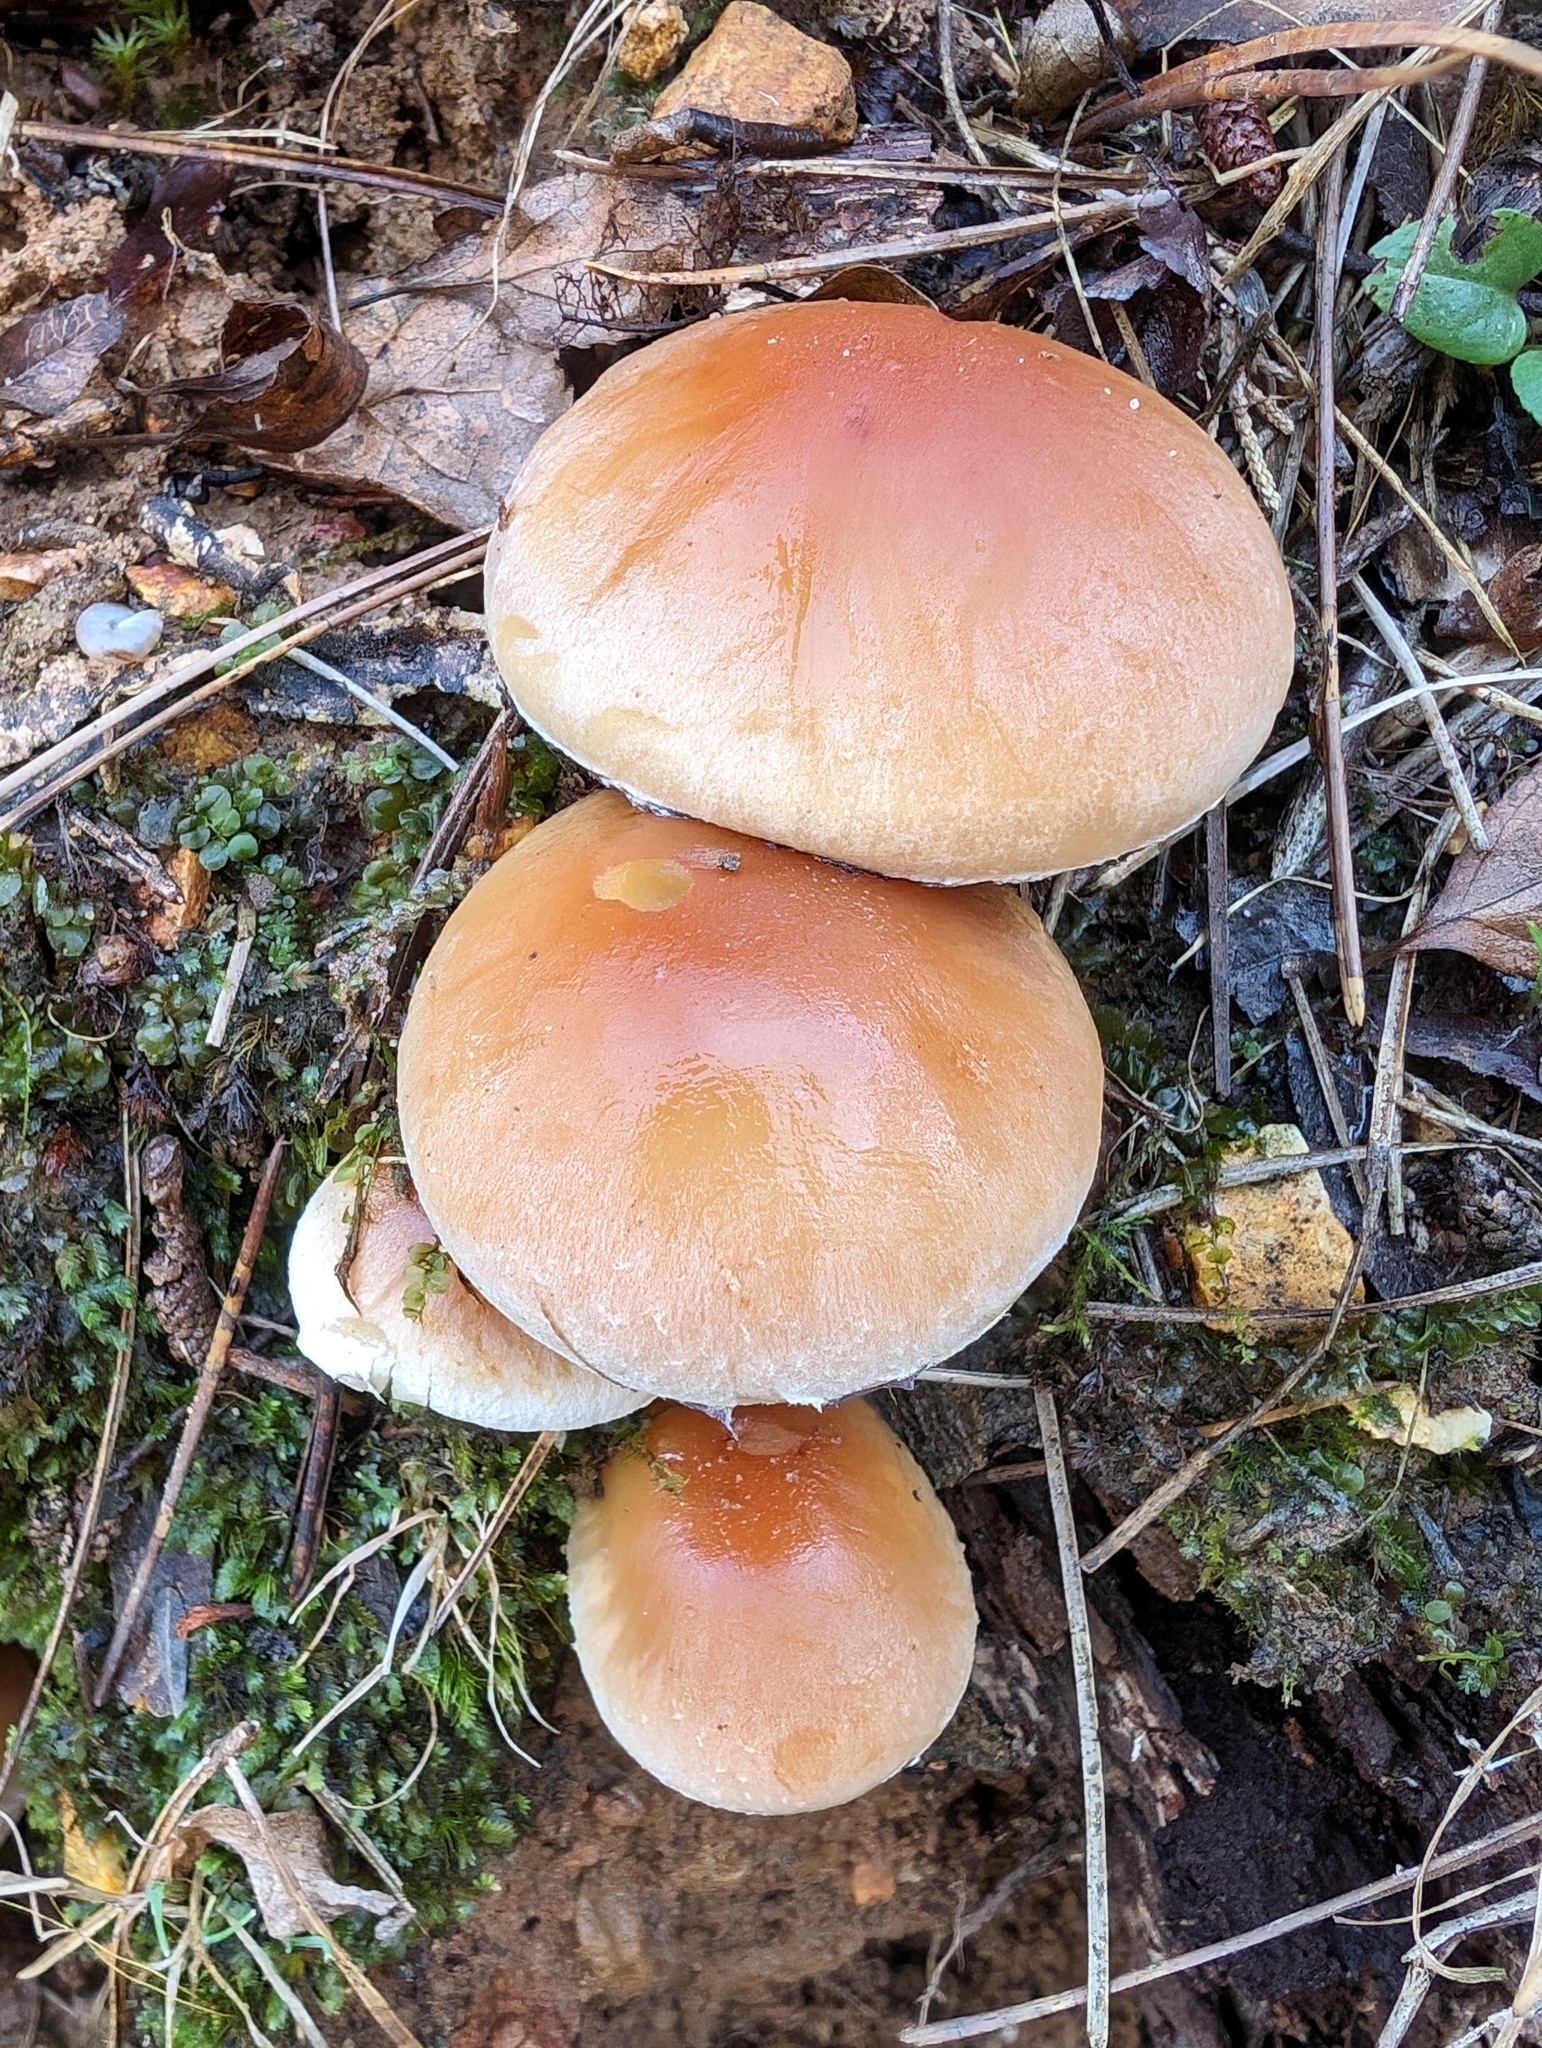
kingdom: Fungi
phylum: Basidiomycota
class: Agaricomycetes
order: Agaricales
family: Strophariaceae
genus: Hypholoma
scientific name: Hypholoma lateritium
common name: Brick caps
